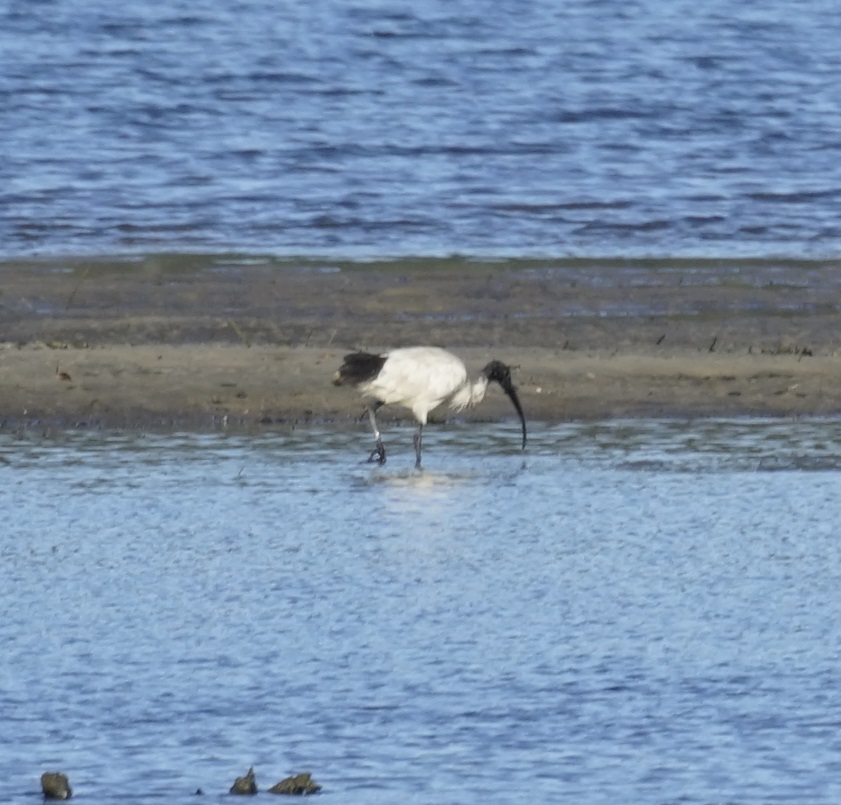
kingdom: Animalia
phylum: Chordata
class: Aves
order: Pelecaniformes
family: Threskiornithidae
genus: Threskiornis
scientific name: Threskiornis molucca
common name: Australian white ibis
